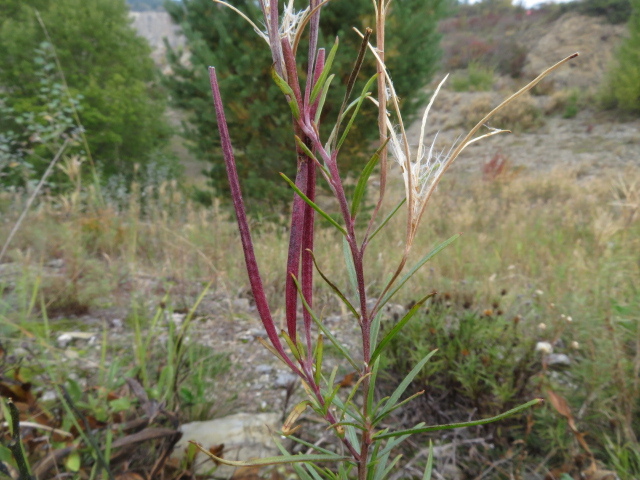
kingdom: Plantae
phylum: Tracheophyta
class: Magnoliopsida
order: Myrtales
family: Onagraceae
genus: Chamaenerion
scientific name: Chamaenerion dodonaei
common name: Rosemary-leaved willowherb
